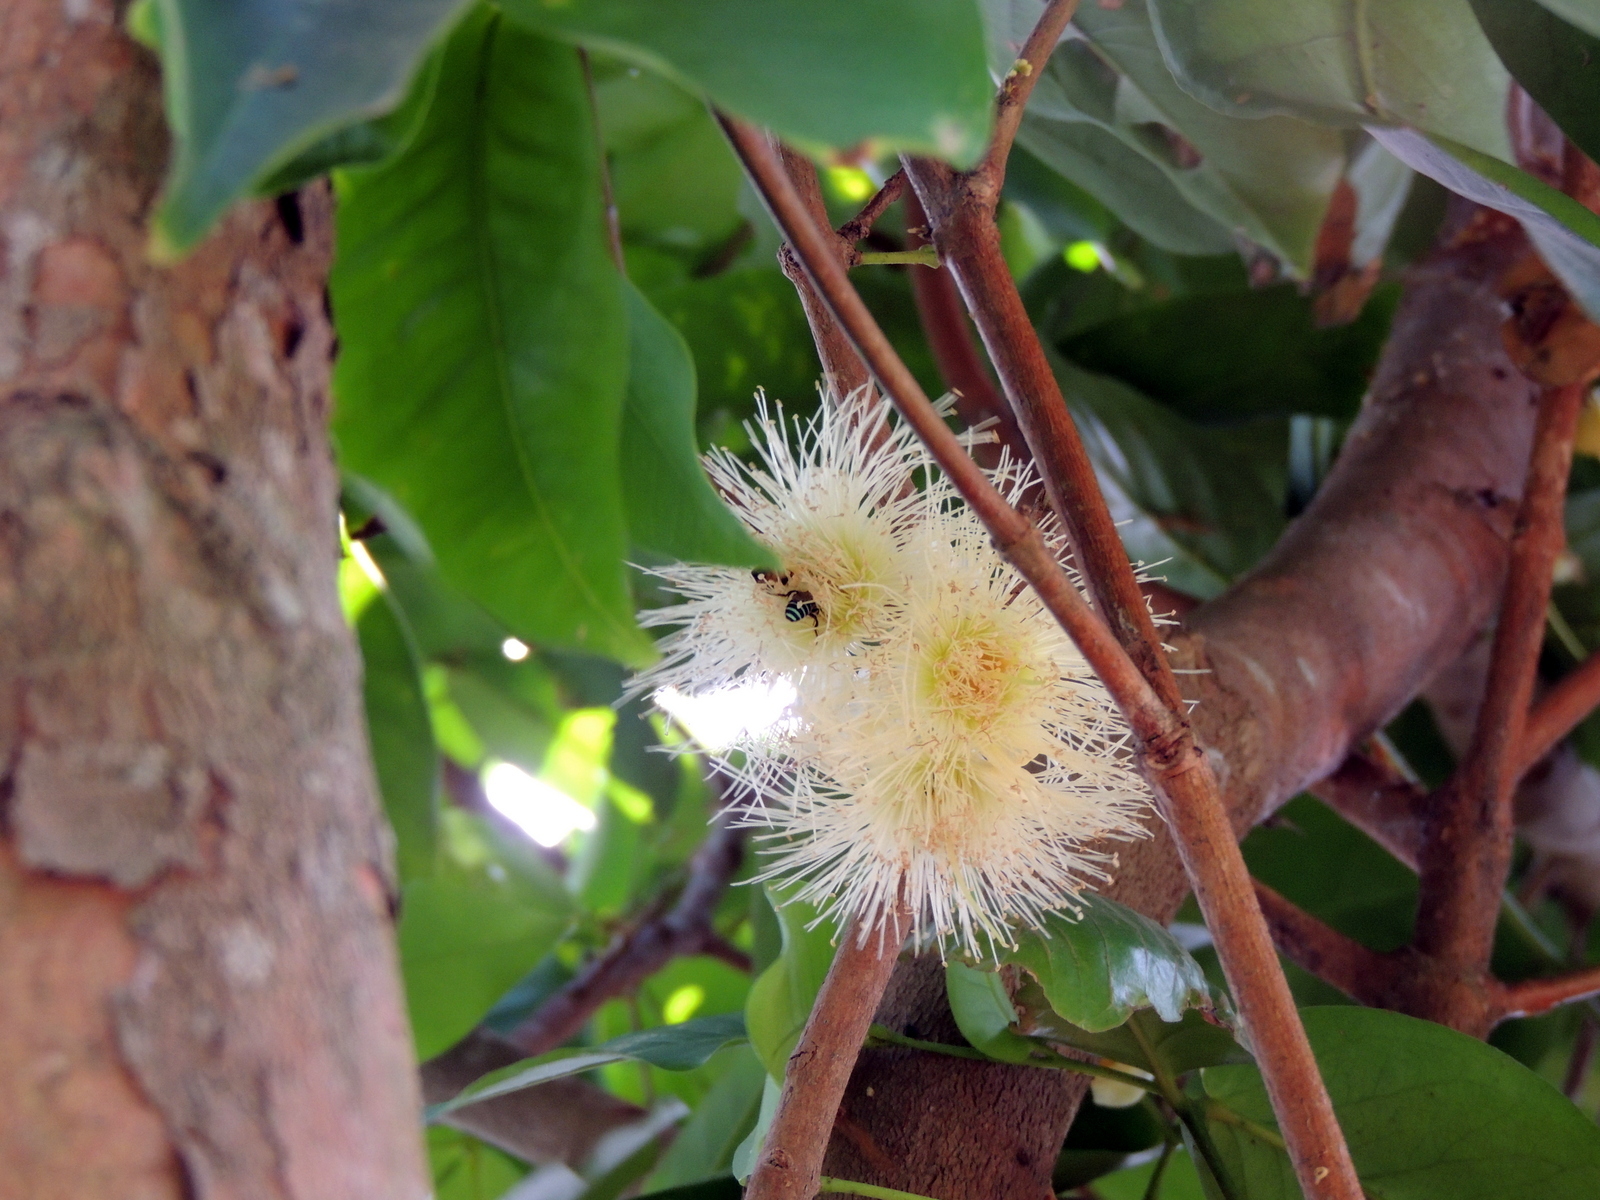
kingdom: Plantae
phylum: Tracheophyta
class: Magnoliopsida
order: Myrtales
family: Myrtaceae
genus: Syzygium
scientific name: Syzygium samarangense
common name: Semarang rose-apple
